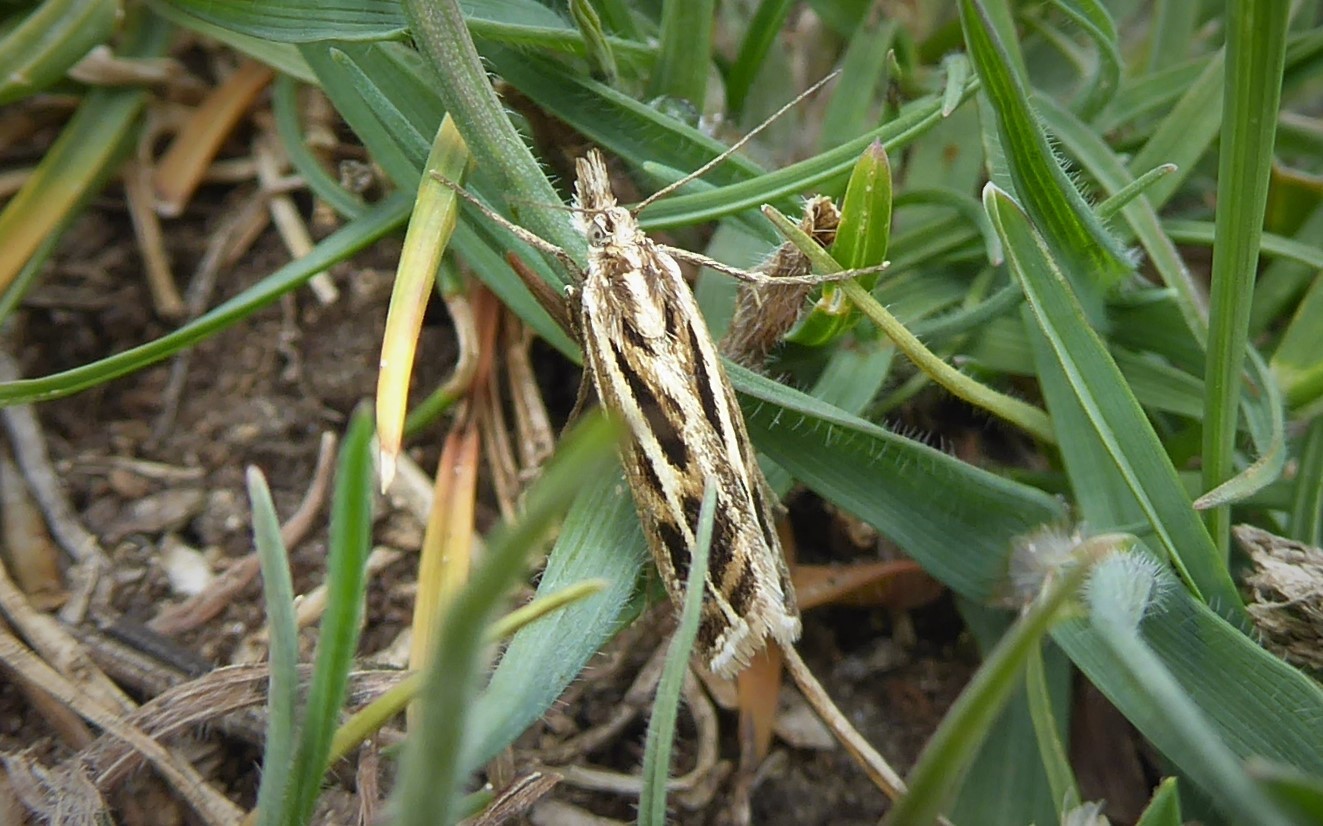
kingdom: Animalia
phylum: Arthropoda
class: Insecta
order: Lepidoptera
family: Crambidae
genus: Orocrambus
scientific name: Orocrambus corruptus
